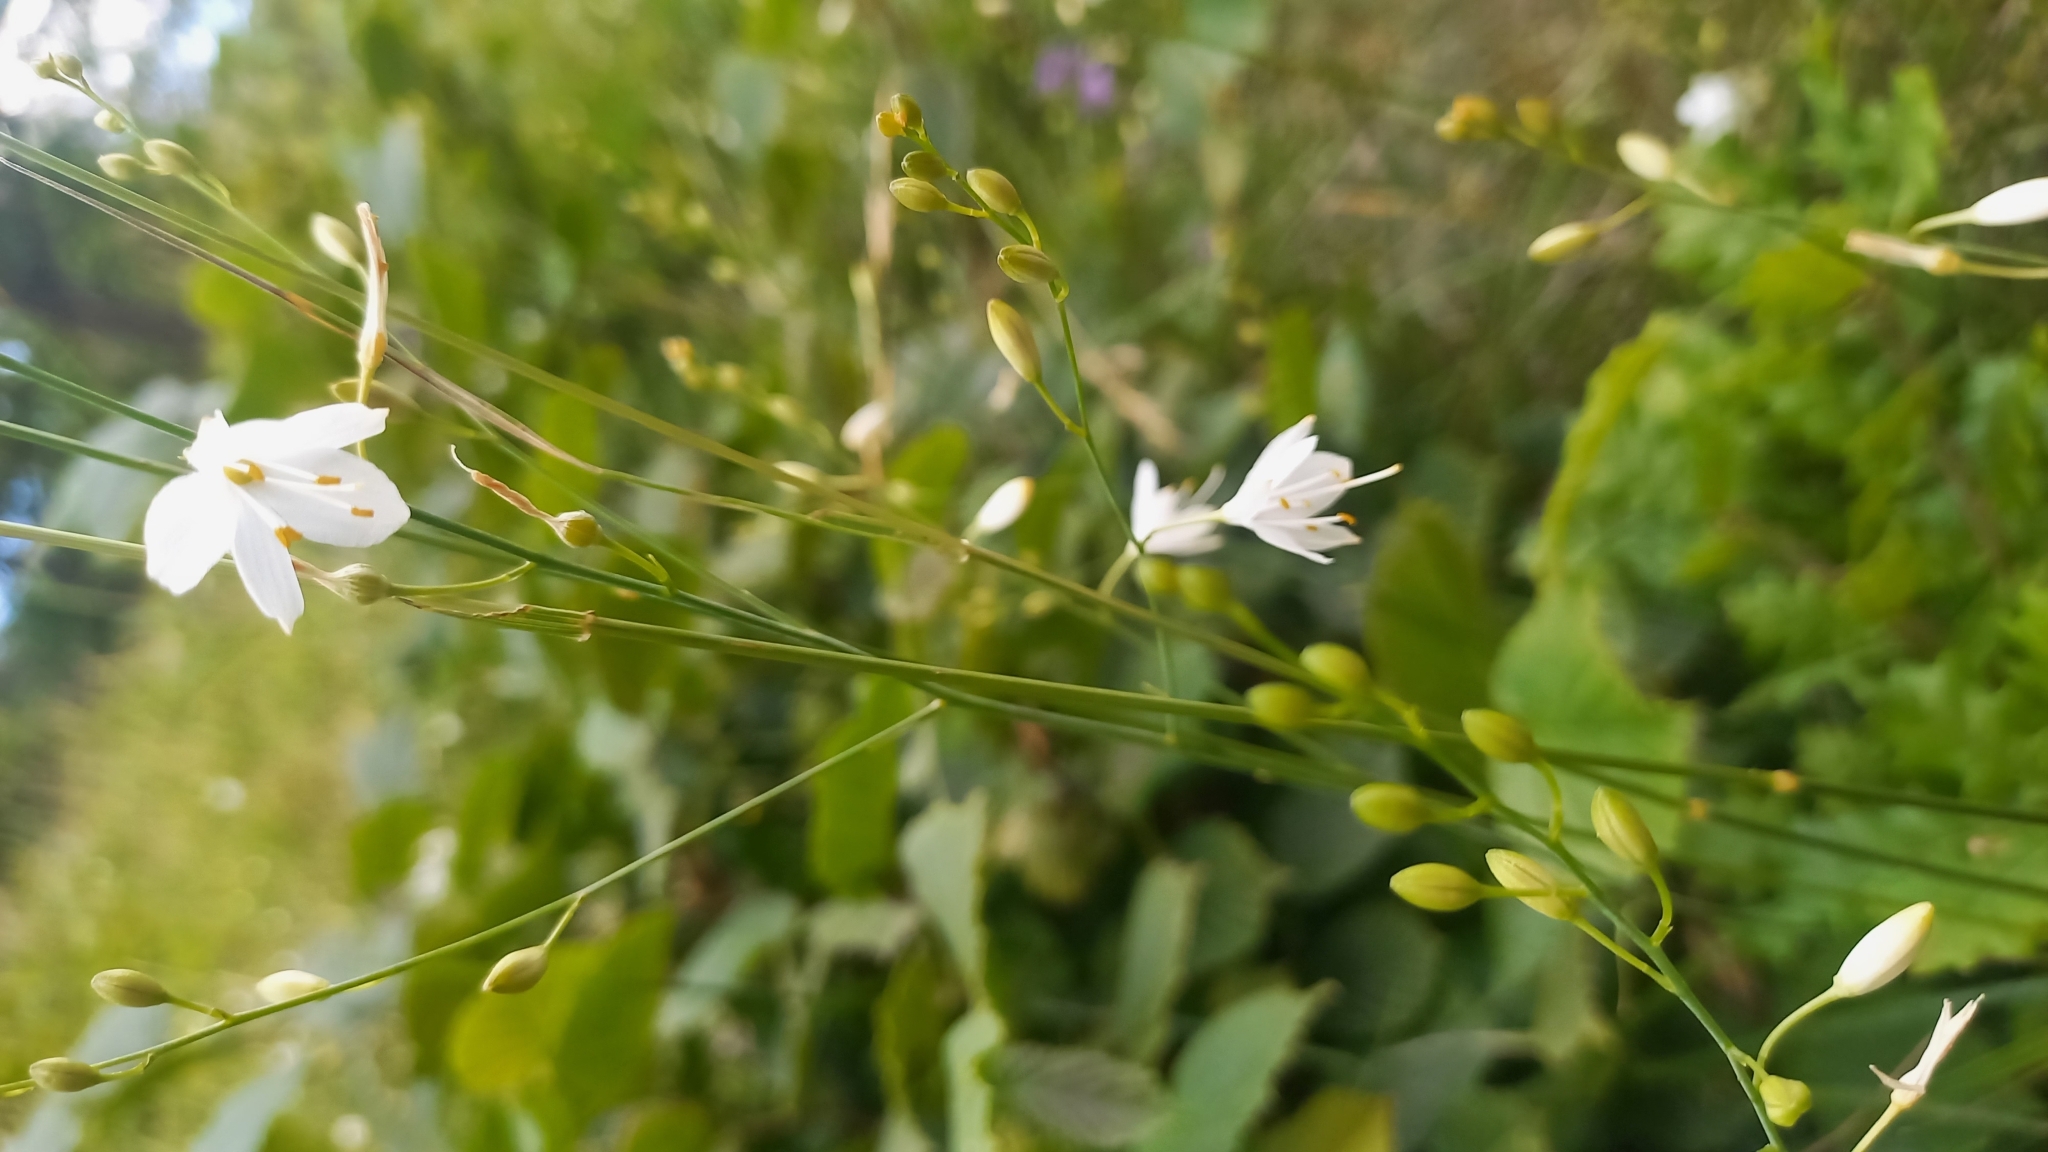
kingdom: Plantae
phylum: Tracheophyta
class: Liliopsida
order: Asparagales
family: Asparagaceae
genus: Anthericum
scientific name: Anthericum ramosum
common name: Branched st. bernard's-lily
